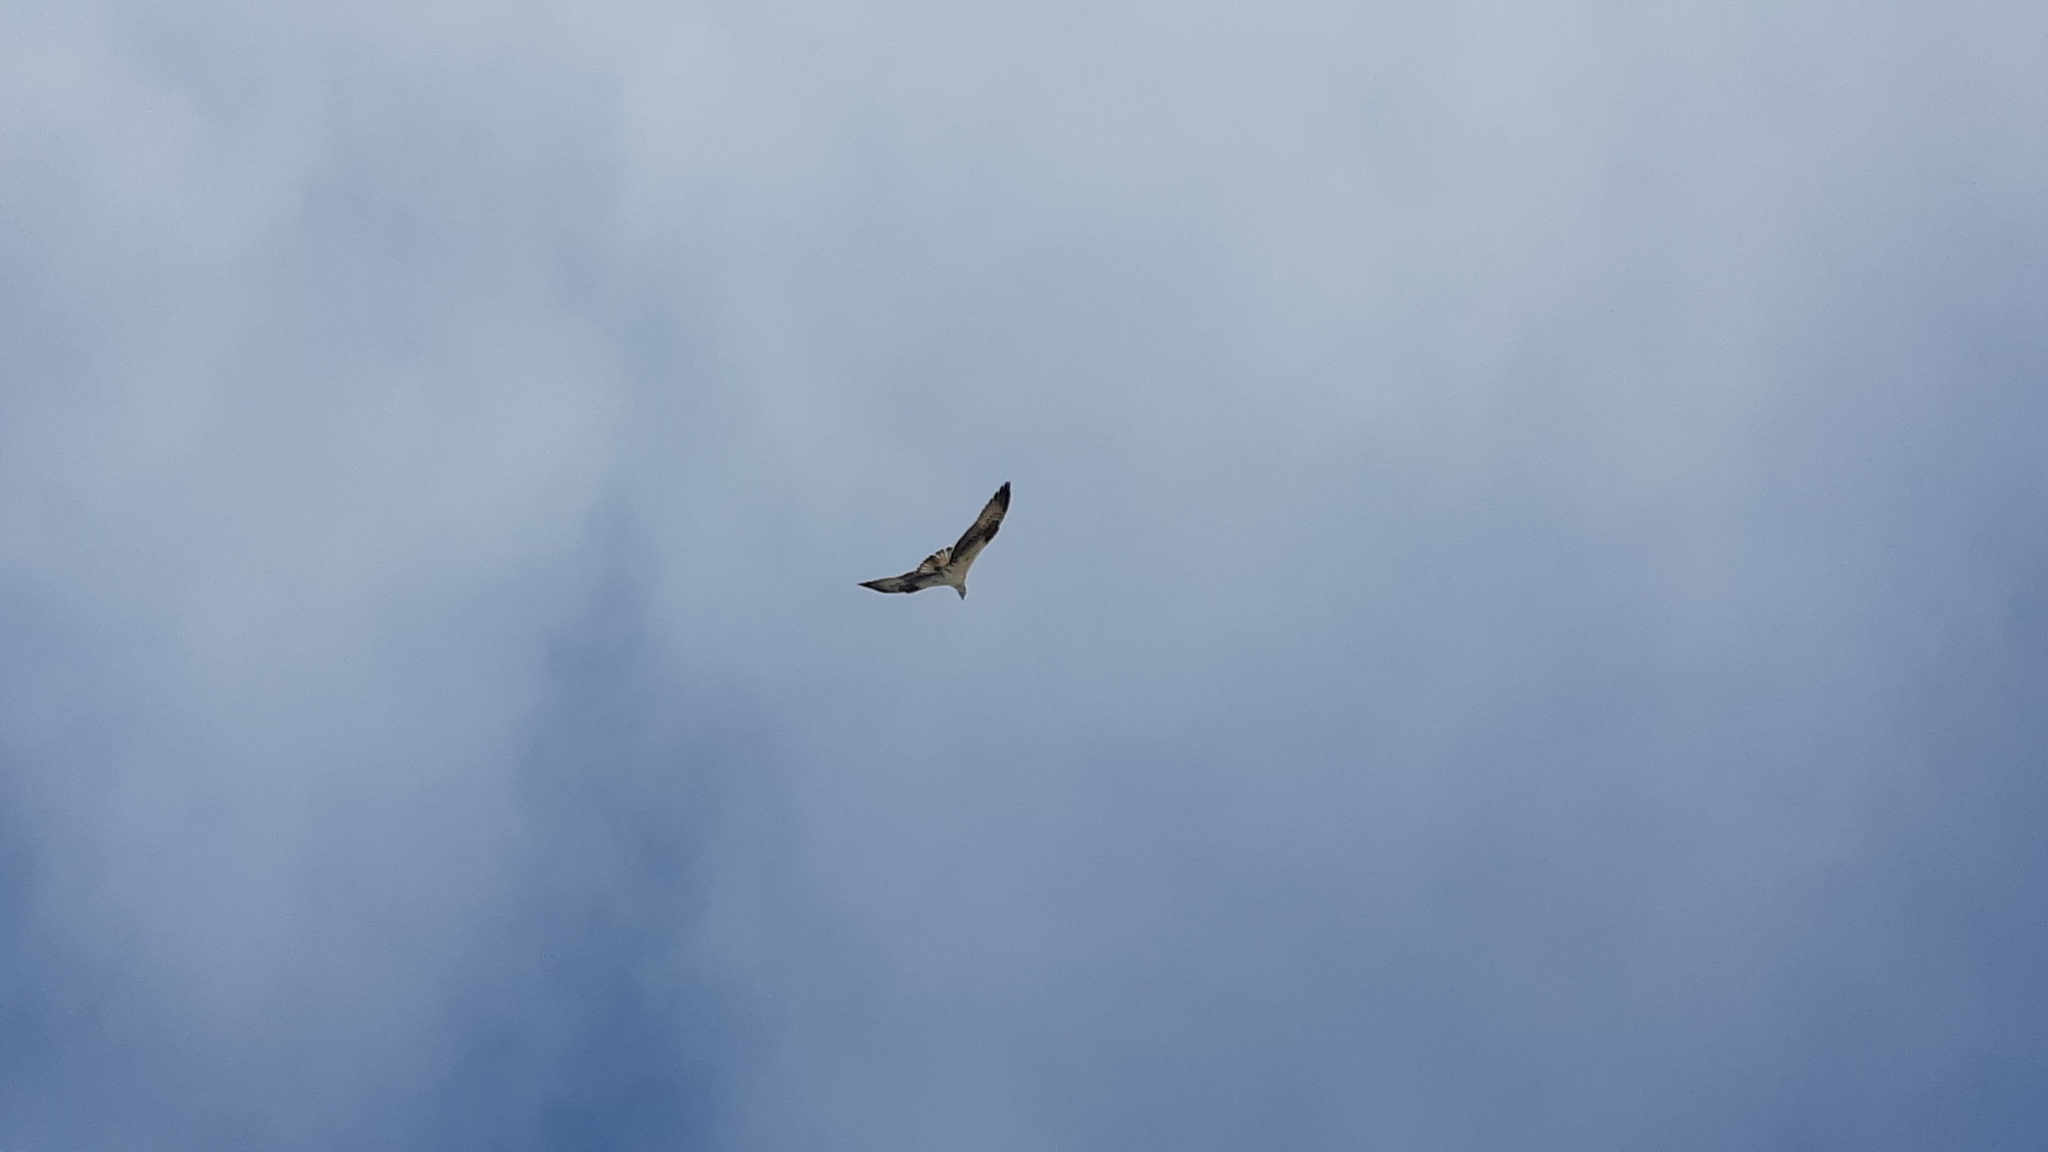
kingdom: Animalia
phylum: Chordata
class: Aves
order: Accipitriformes
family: Pandionidae
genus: Pandion
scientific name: Pandion haliaetus
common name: Osprey
